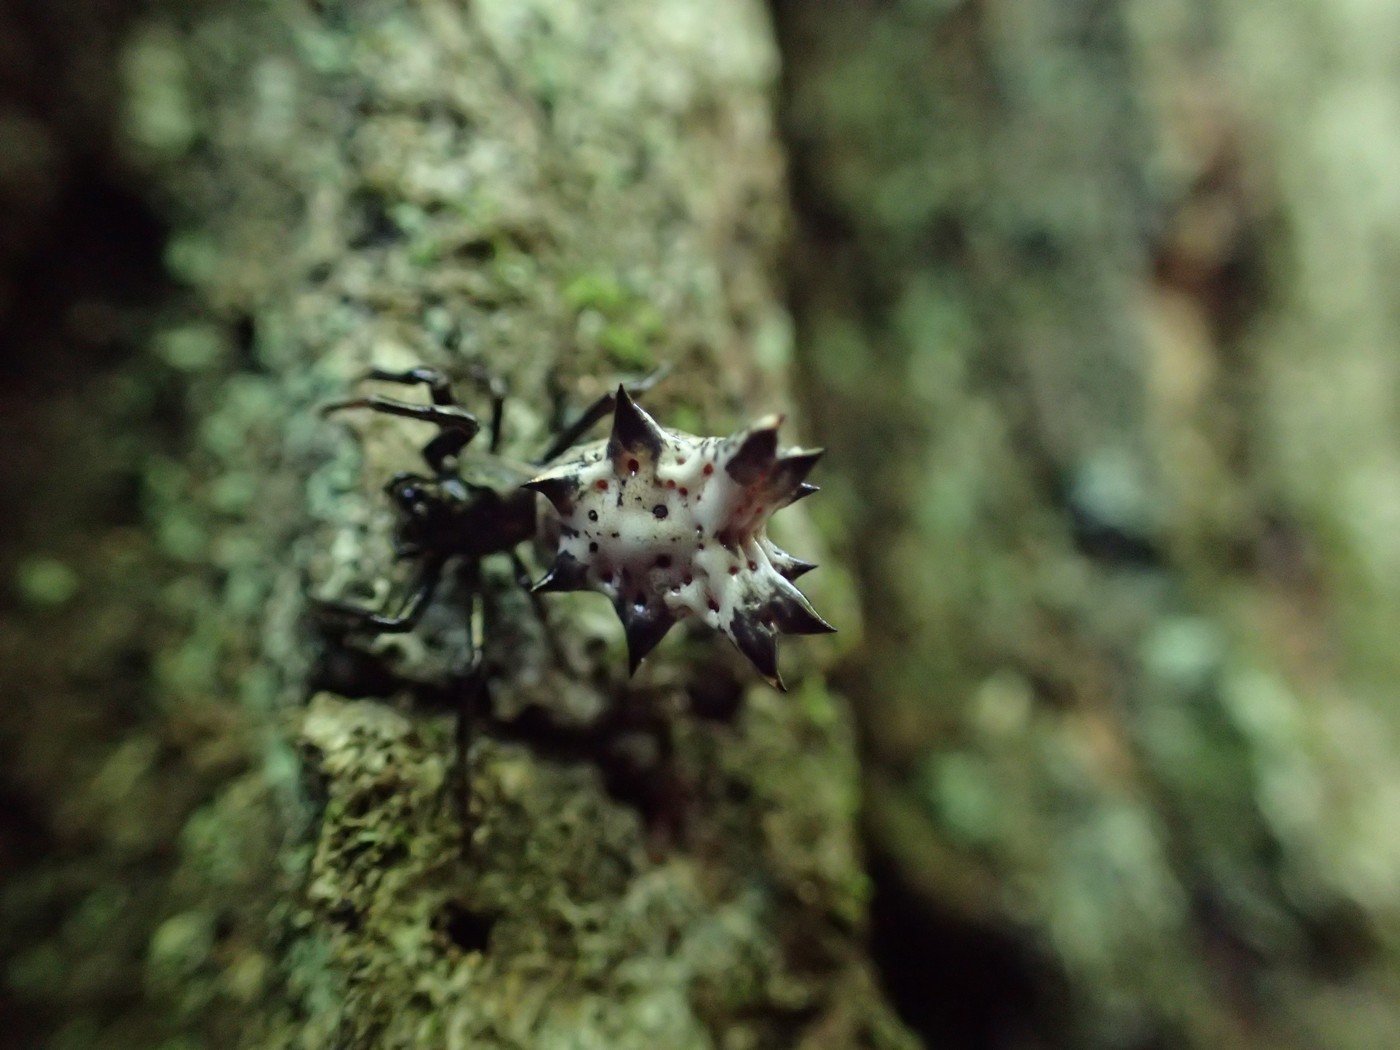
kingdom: Animalia
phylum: Arthropoda
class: Arachnida
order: Araneae
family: Araneidae
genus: Micrathena
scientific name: Micrathena gracilis
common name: Orb weavers
